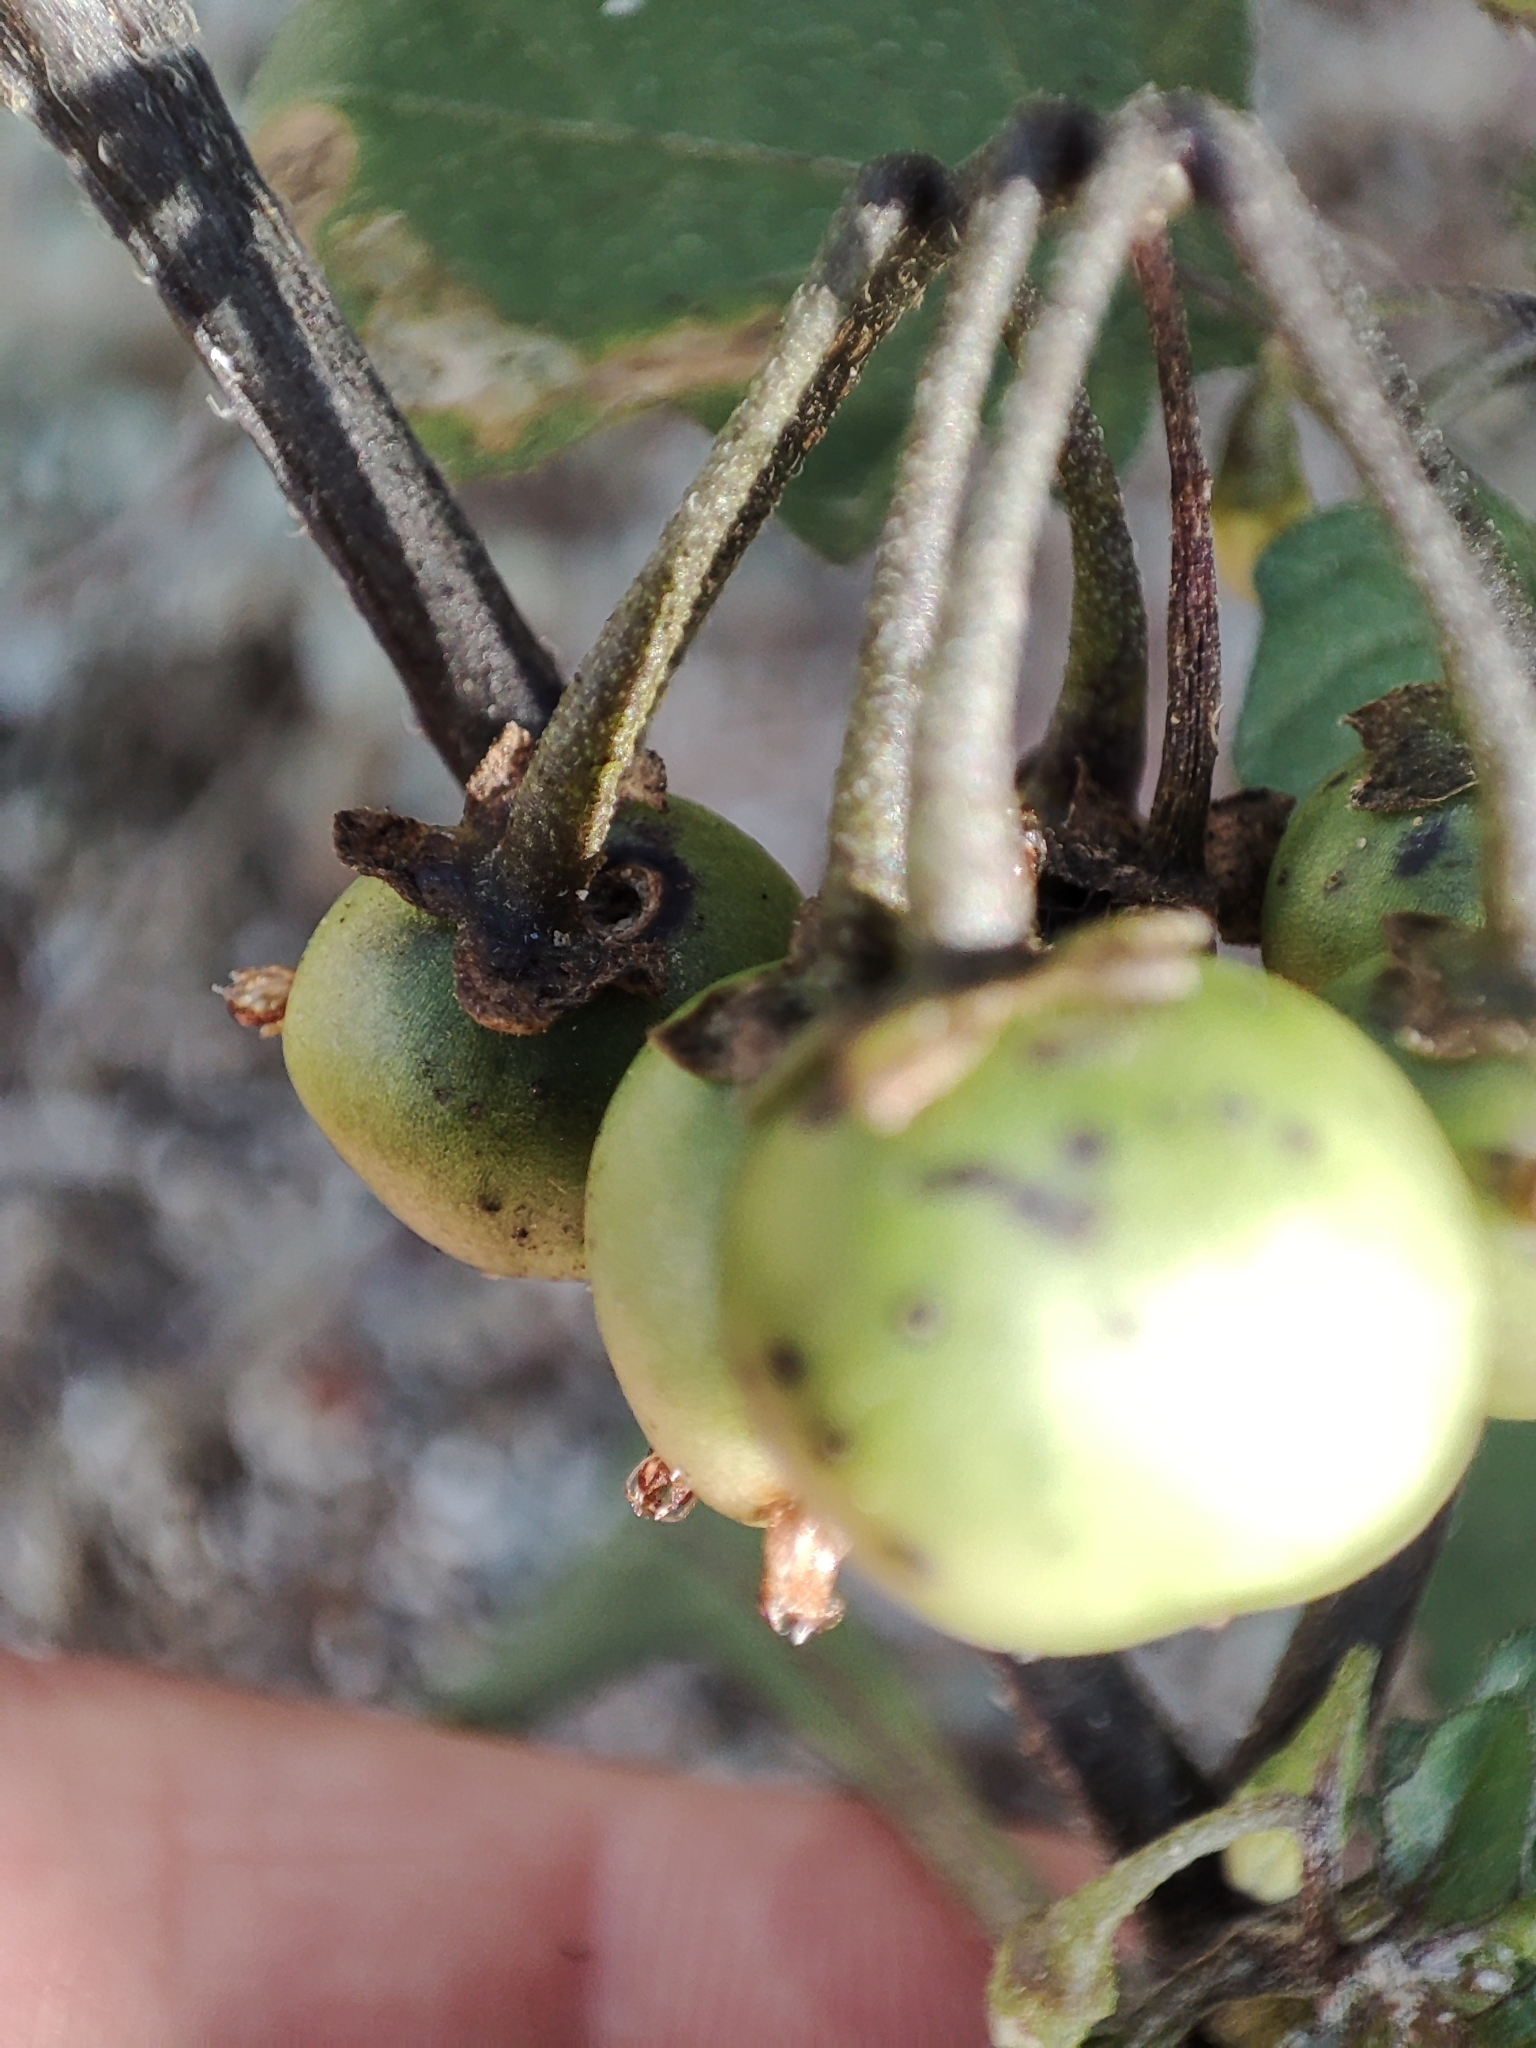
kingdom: Plantae
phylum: Tracheophyta
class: Magnoliopsida
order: Solanales
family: Solanaceae
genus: Solanum
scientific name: Solanum
